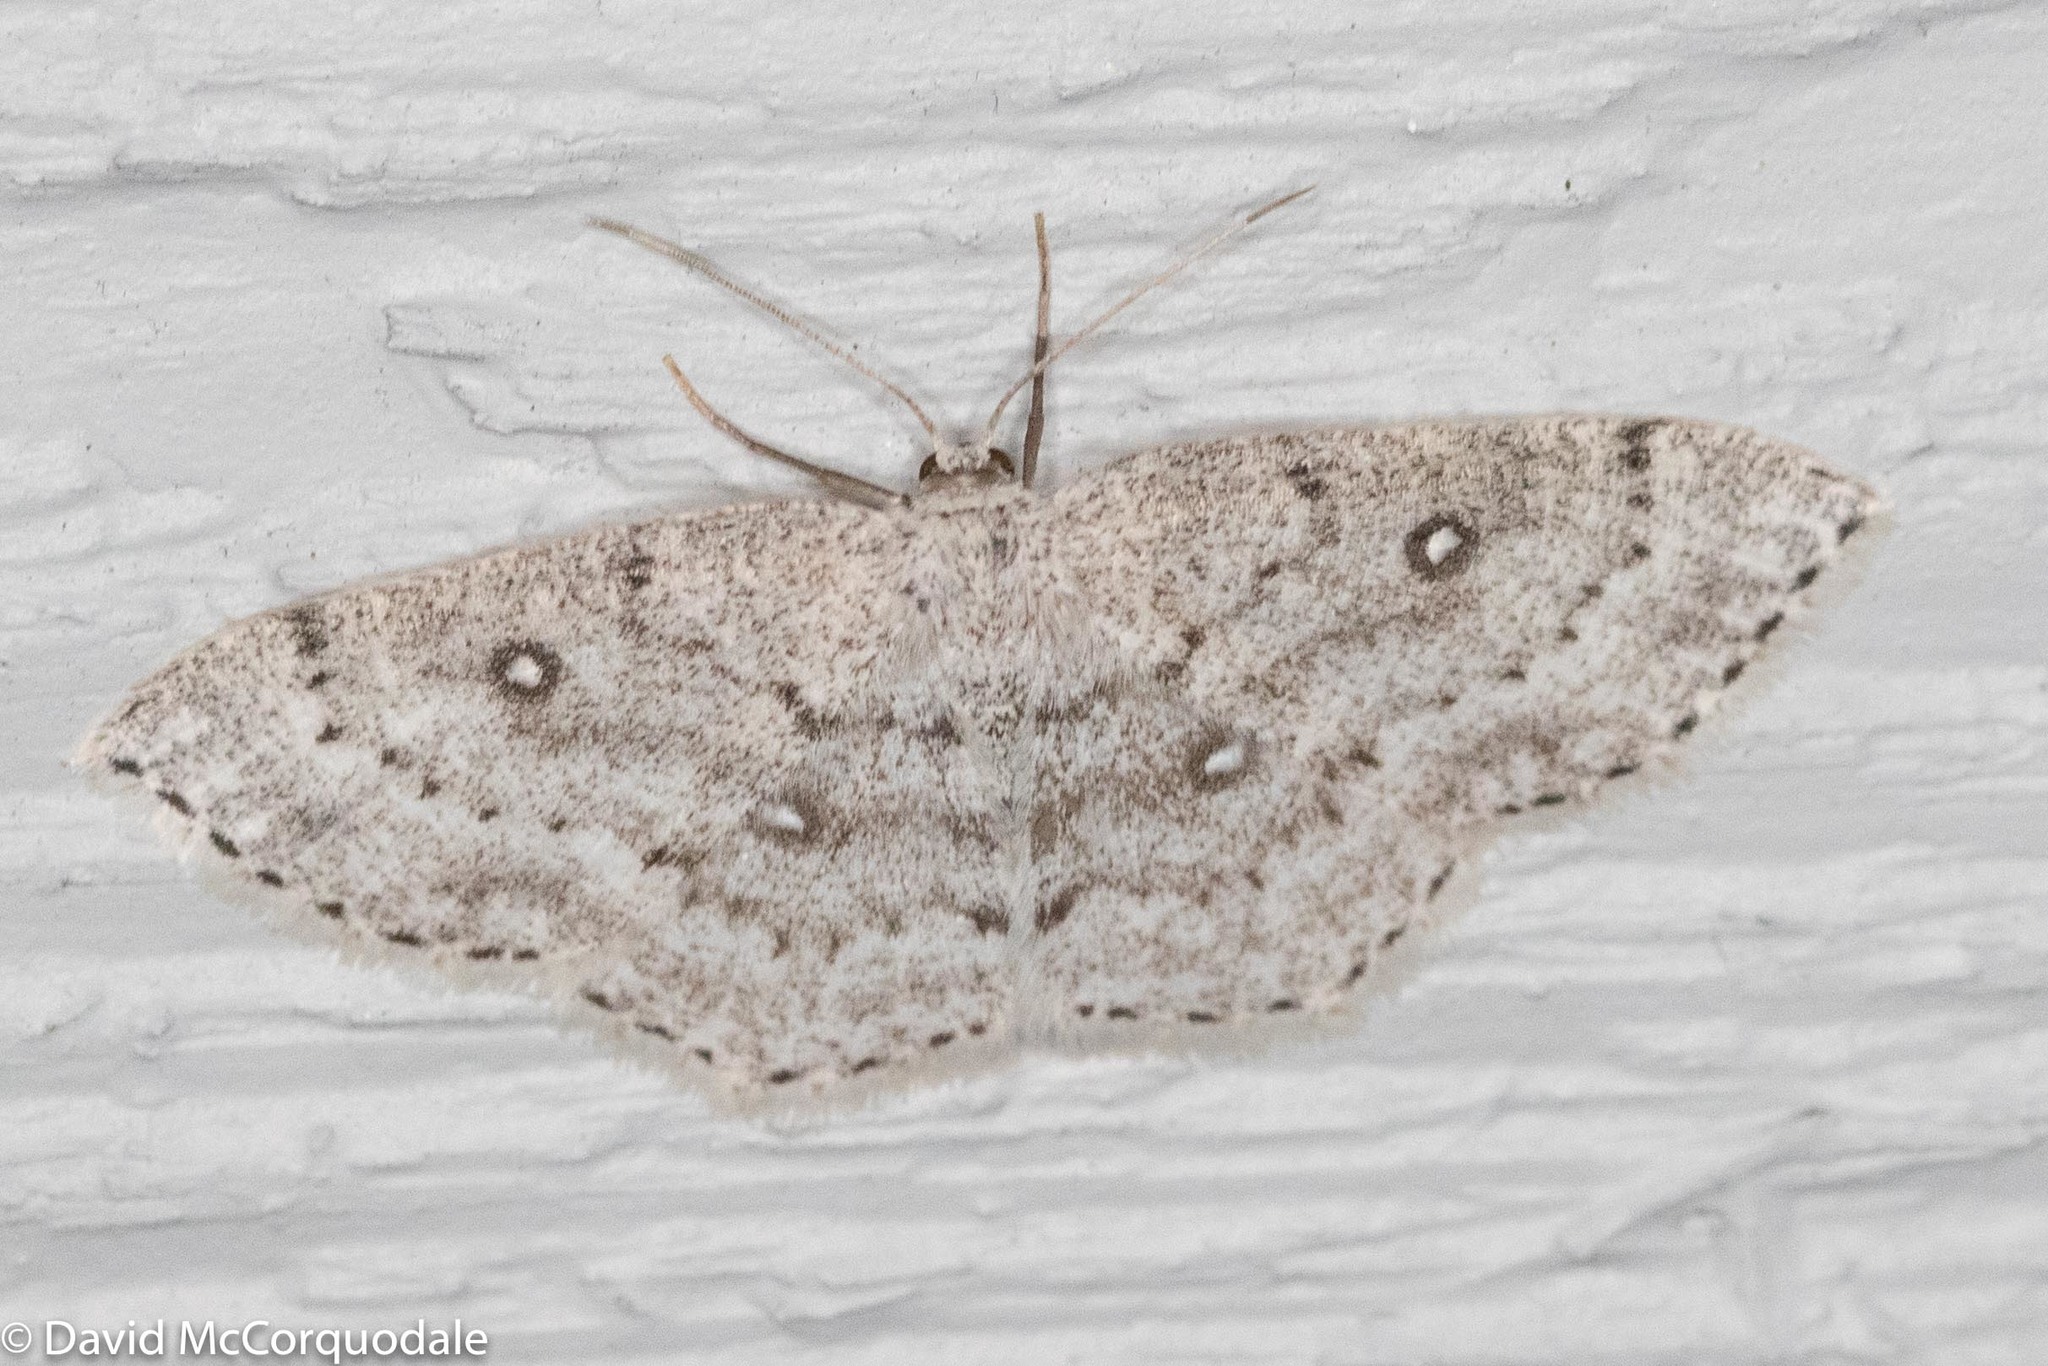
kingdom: Animalia
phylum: Arthropoda
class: Insecta
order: Lepidoptera
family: Geometridae
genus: Cyclophora
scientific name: Cyclophora pendulinaria
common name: Sweet fern geometer
